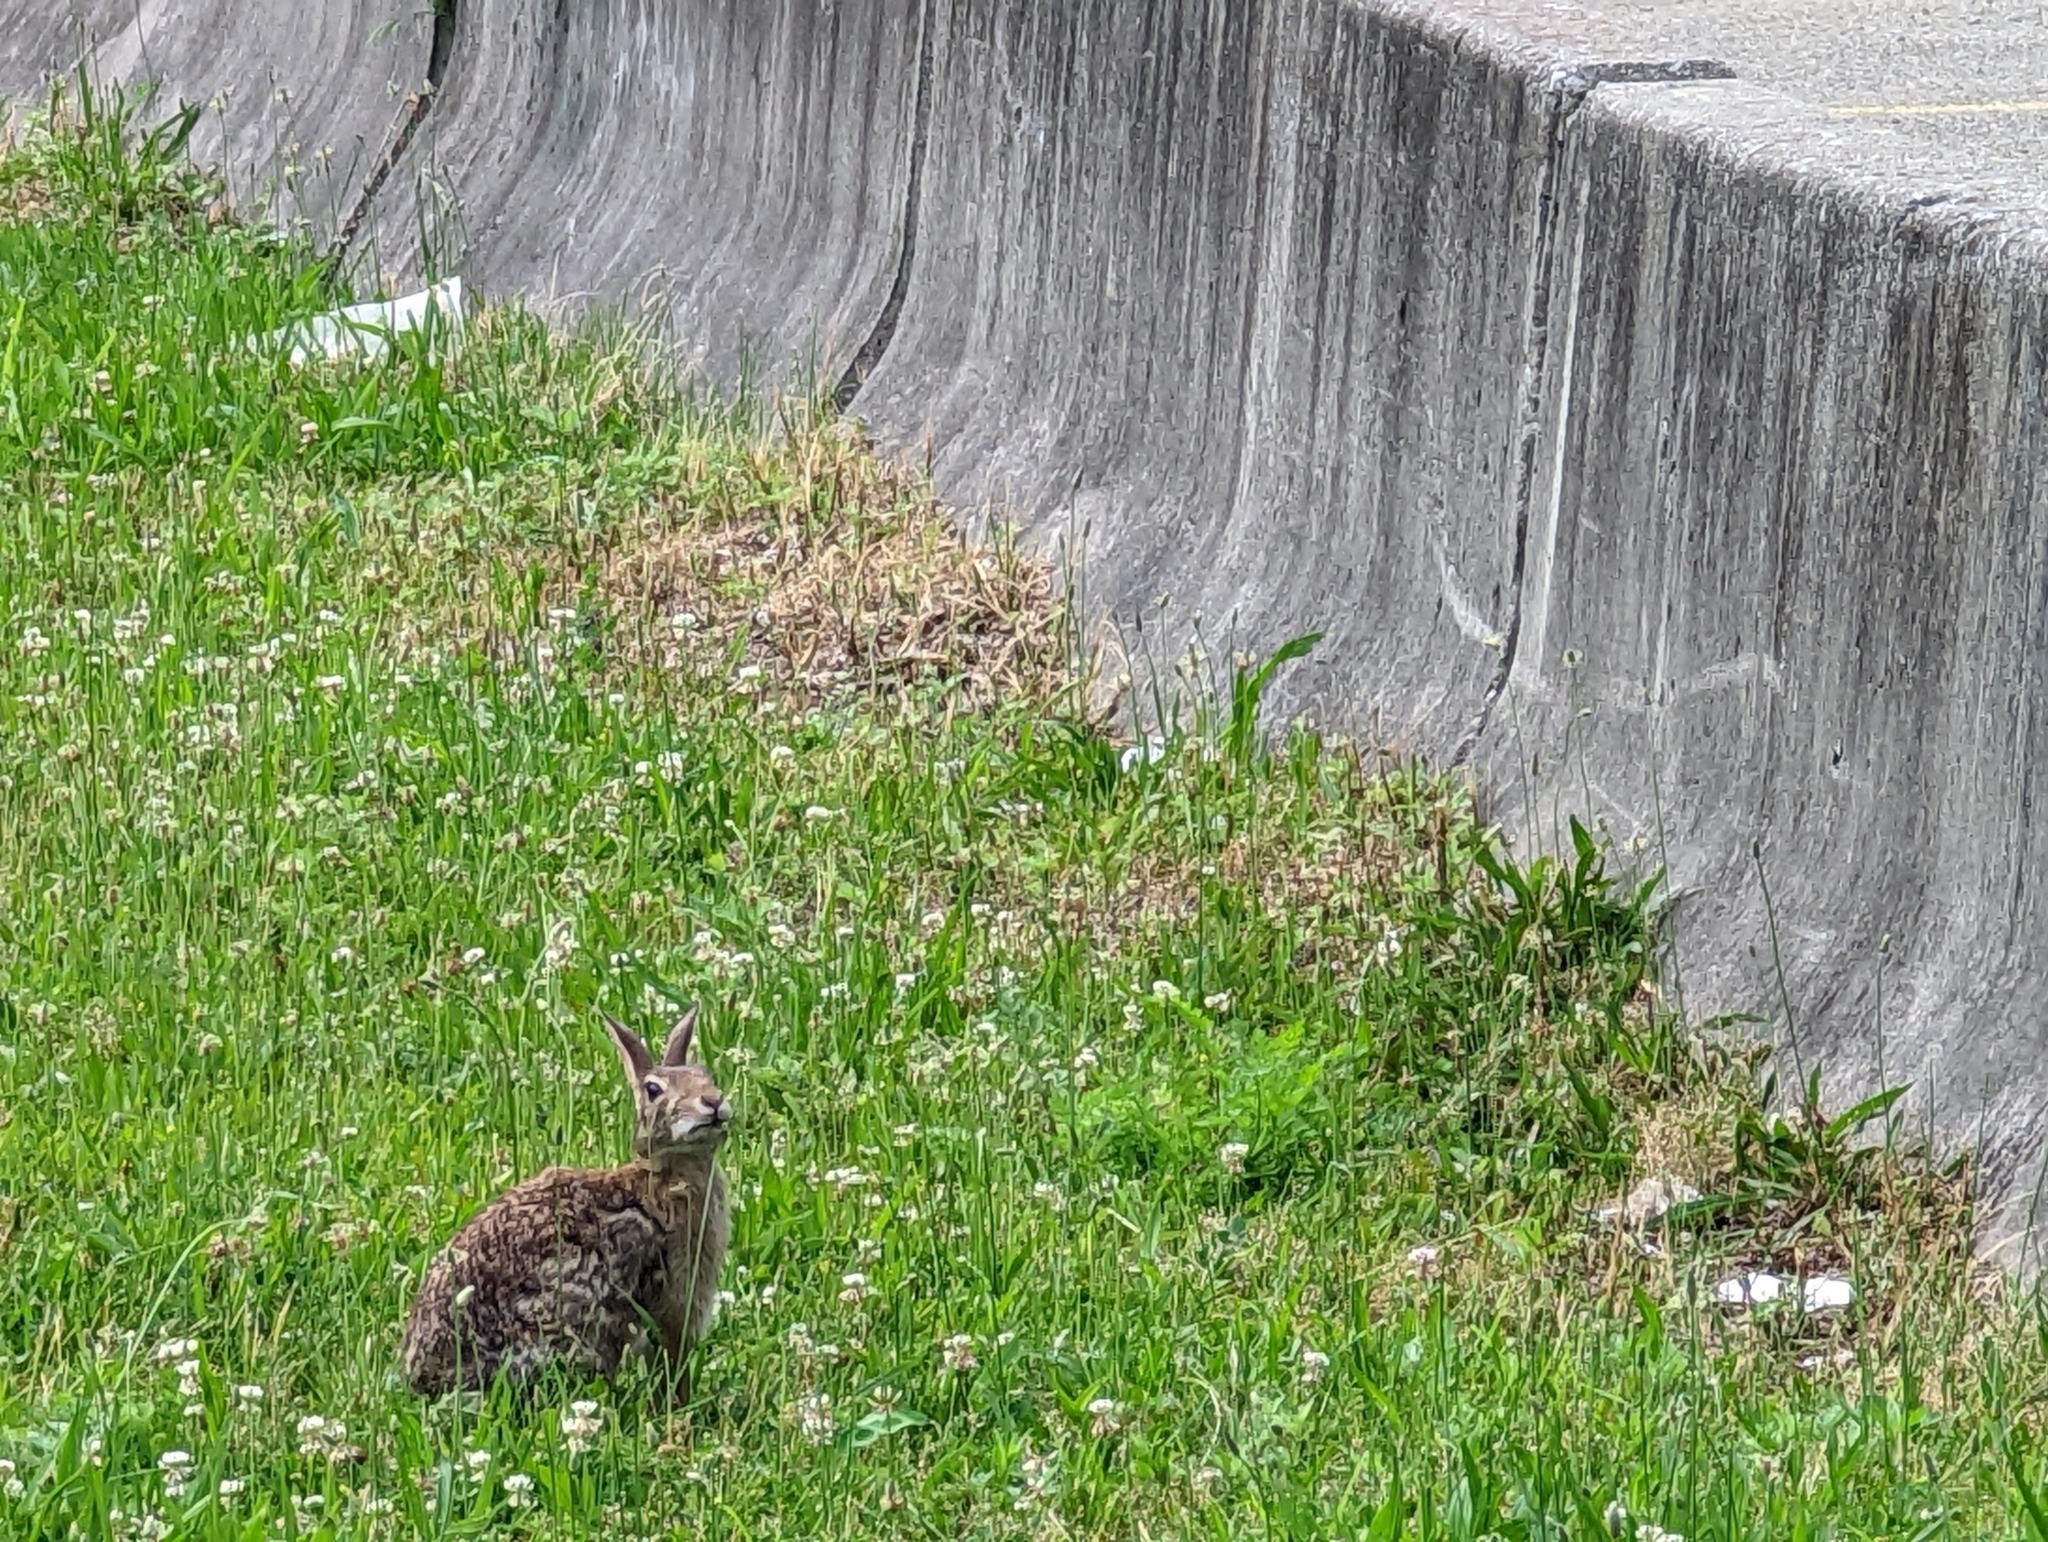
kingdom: Animalia
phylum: Chordata
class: Mammalia
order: Lagomorpha
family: Leporidae
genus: Sylvilagus
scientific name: Sylvilagus floridanus
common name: Eastern cottontail
